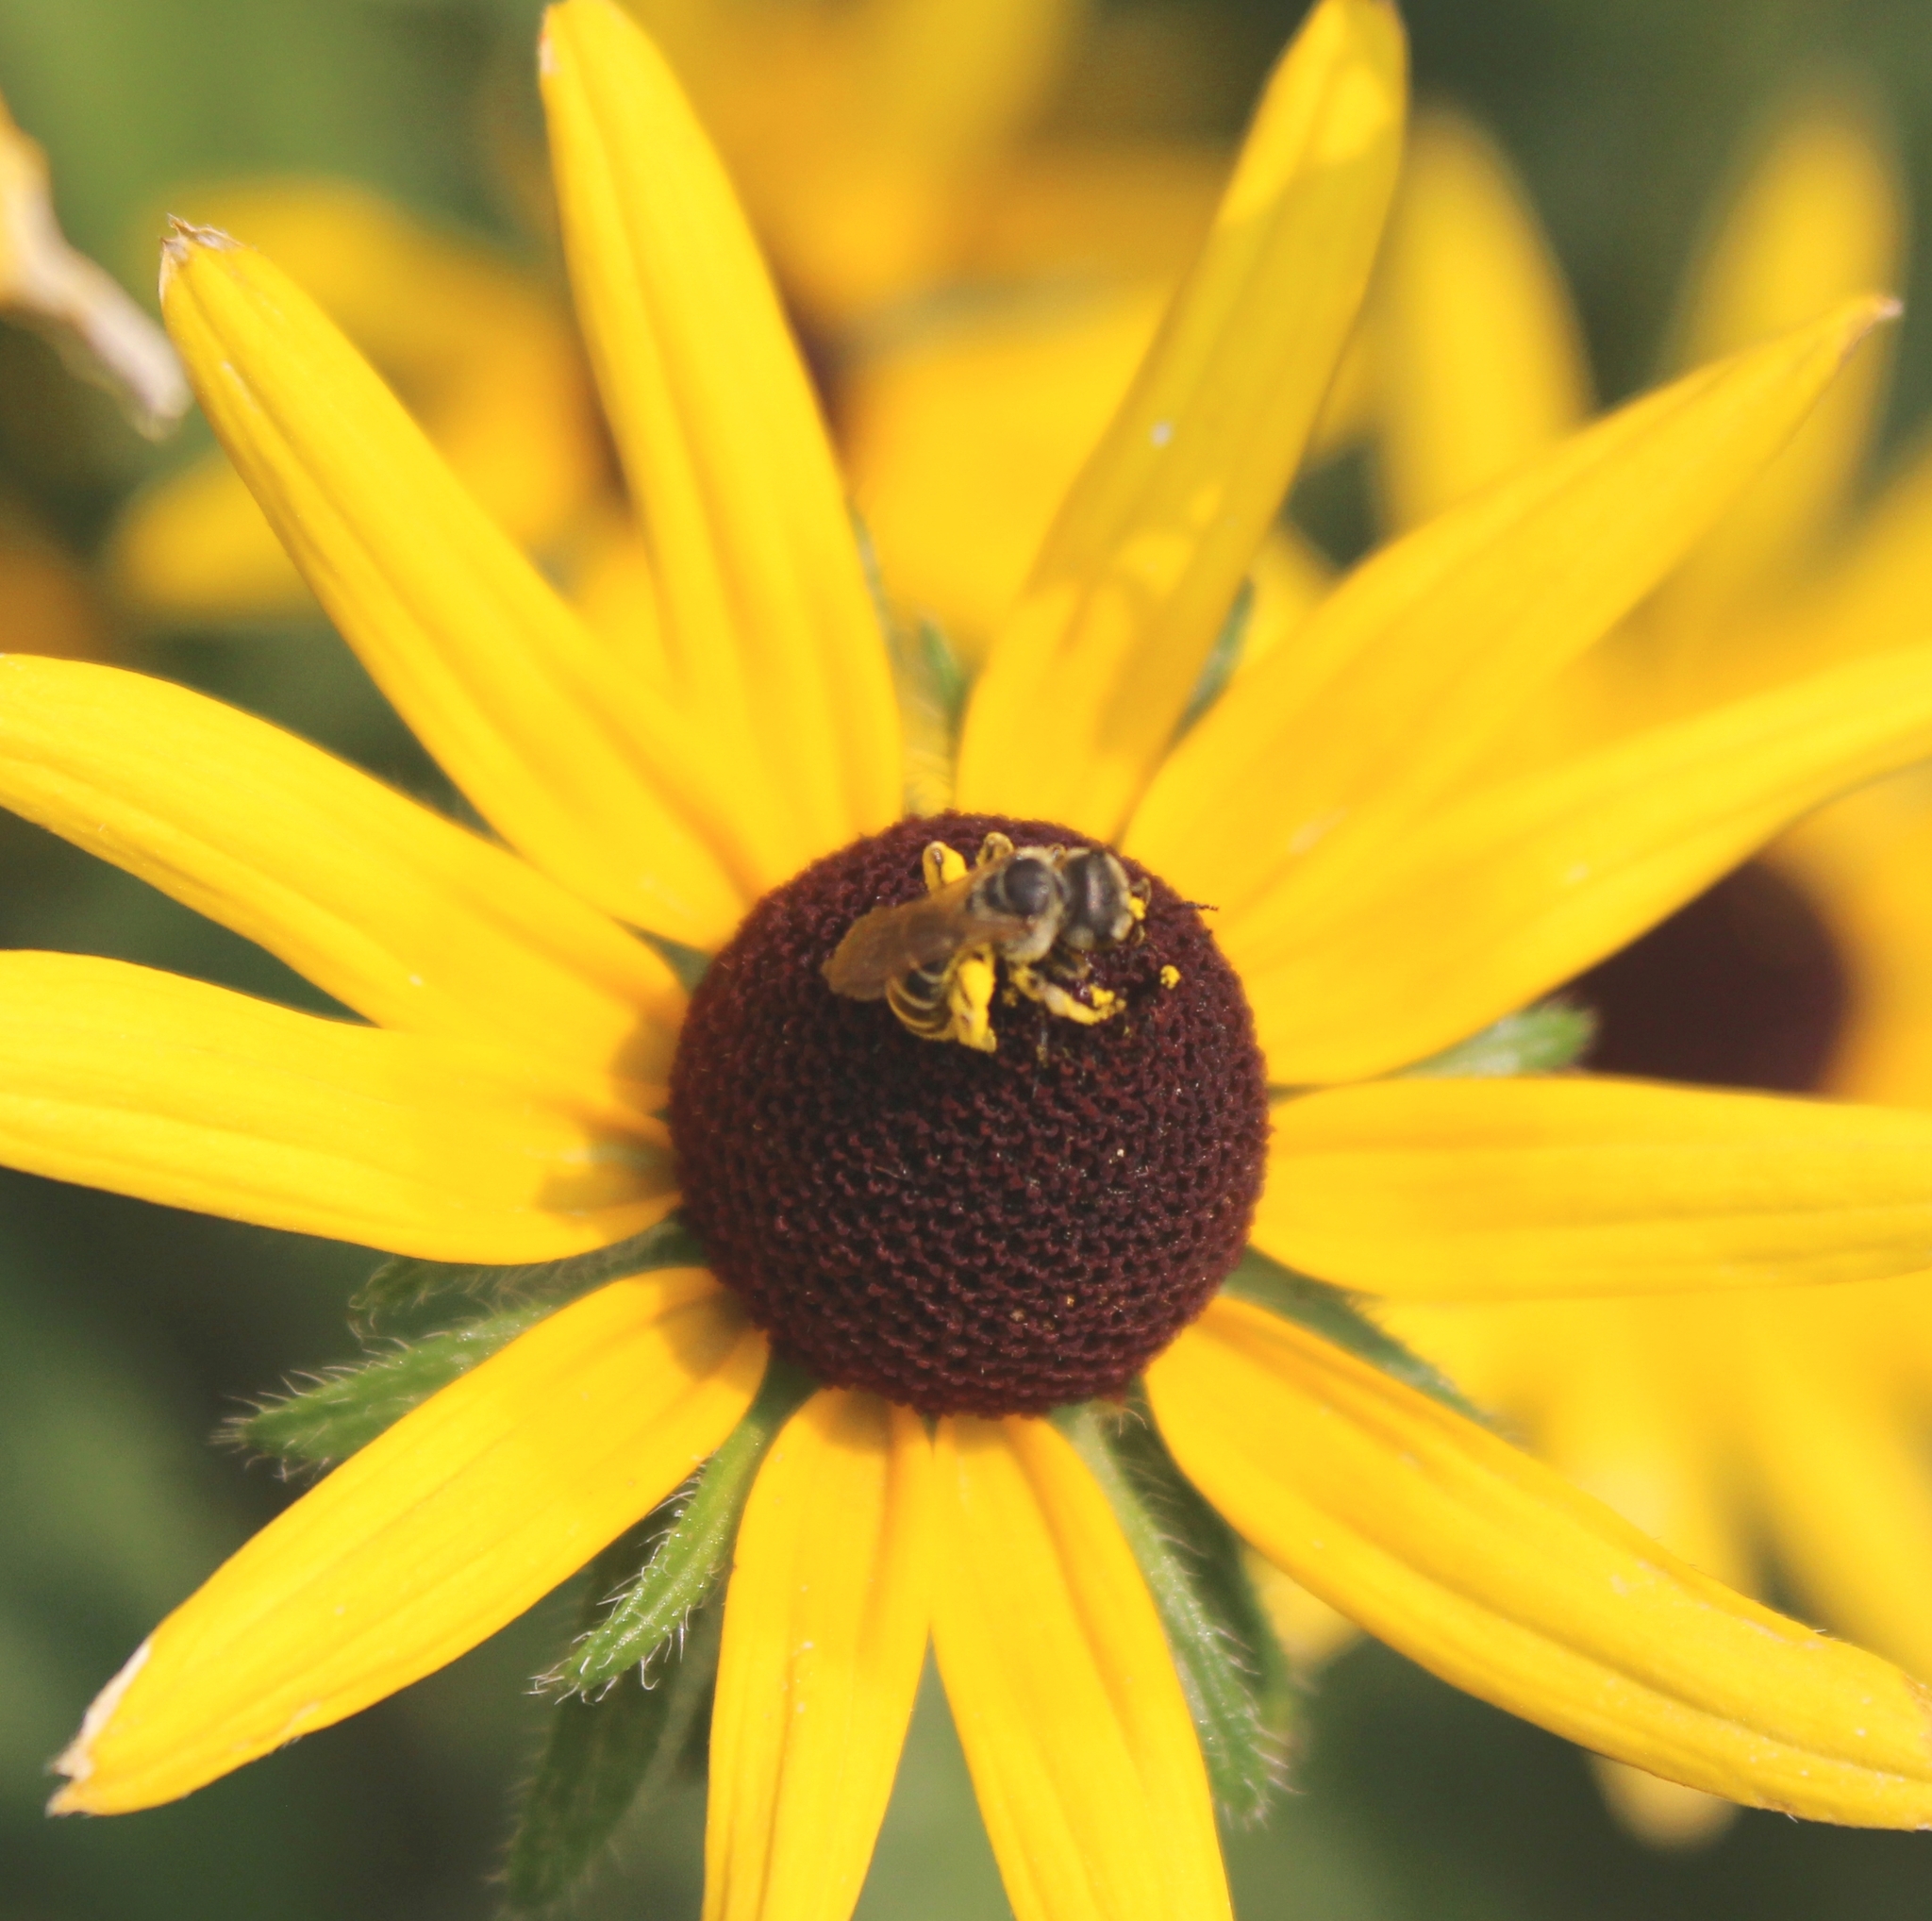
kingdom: Animalia
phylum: Arthropoda
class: Insecta
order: Hymenoptera
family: Halictidae
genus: Halictus
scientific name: Halictus ligatus
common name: Ligated furrow bee
